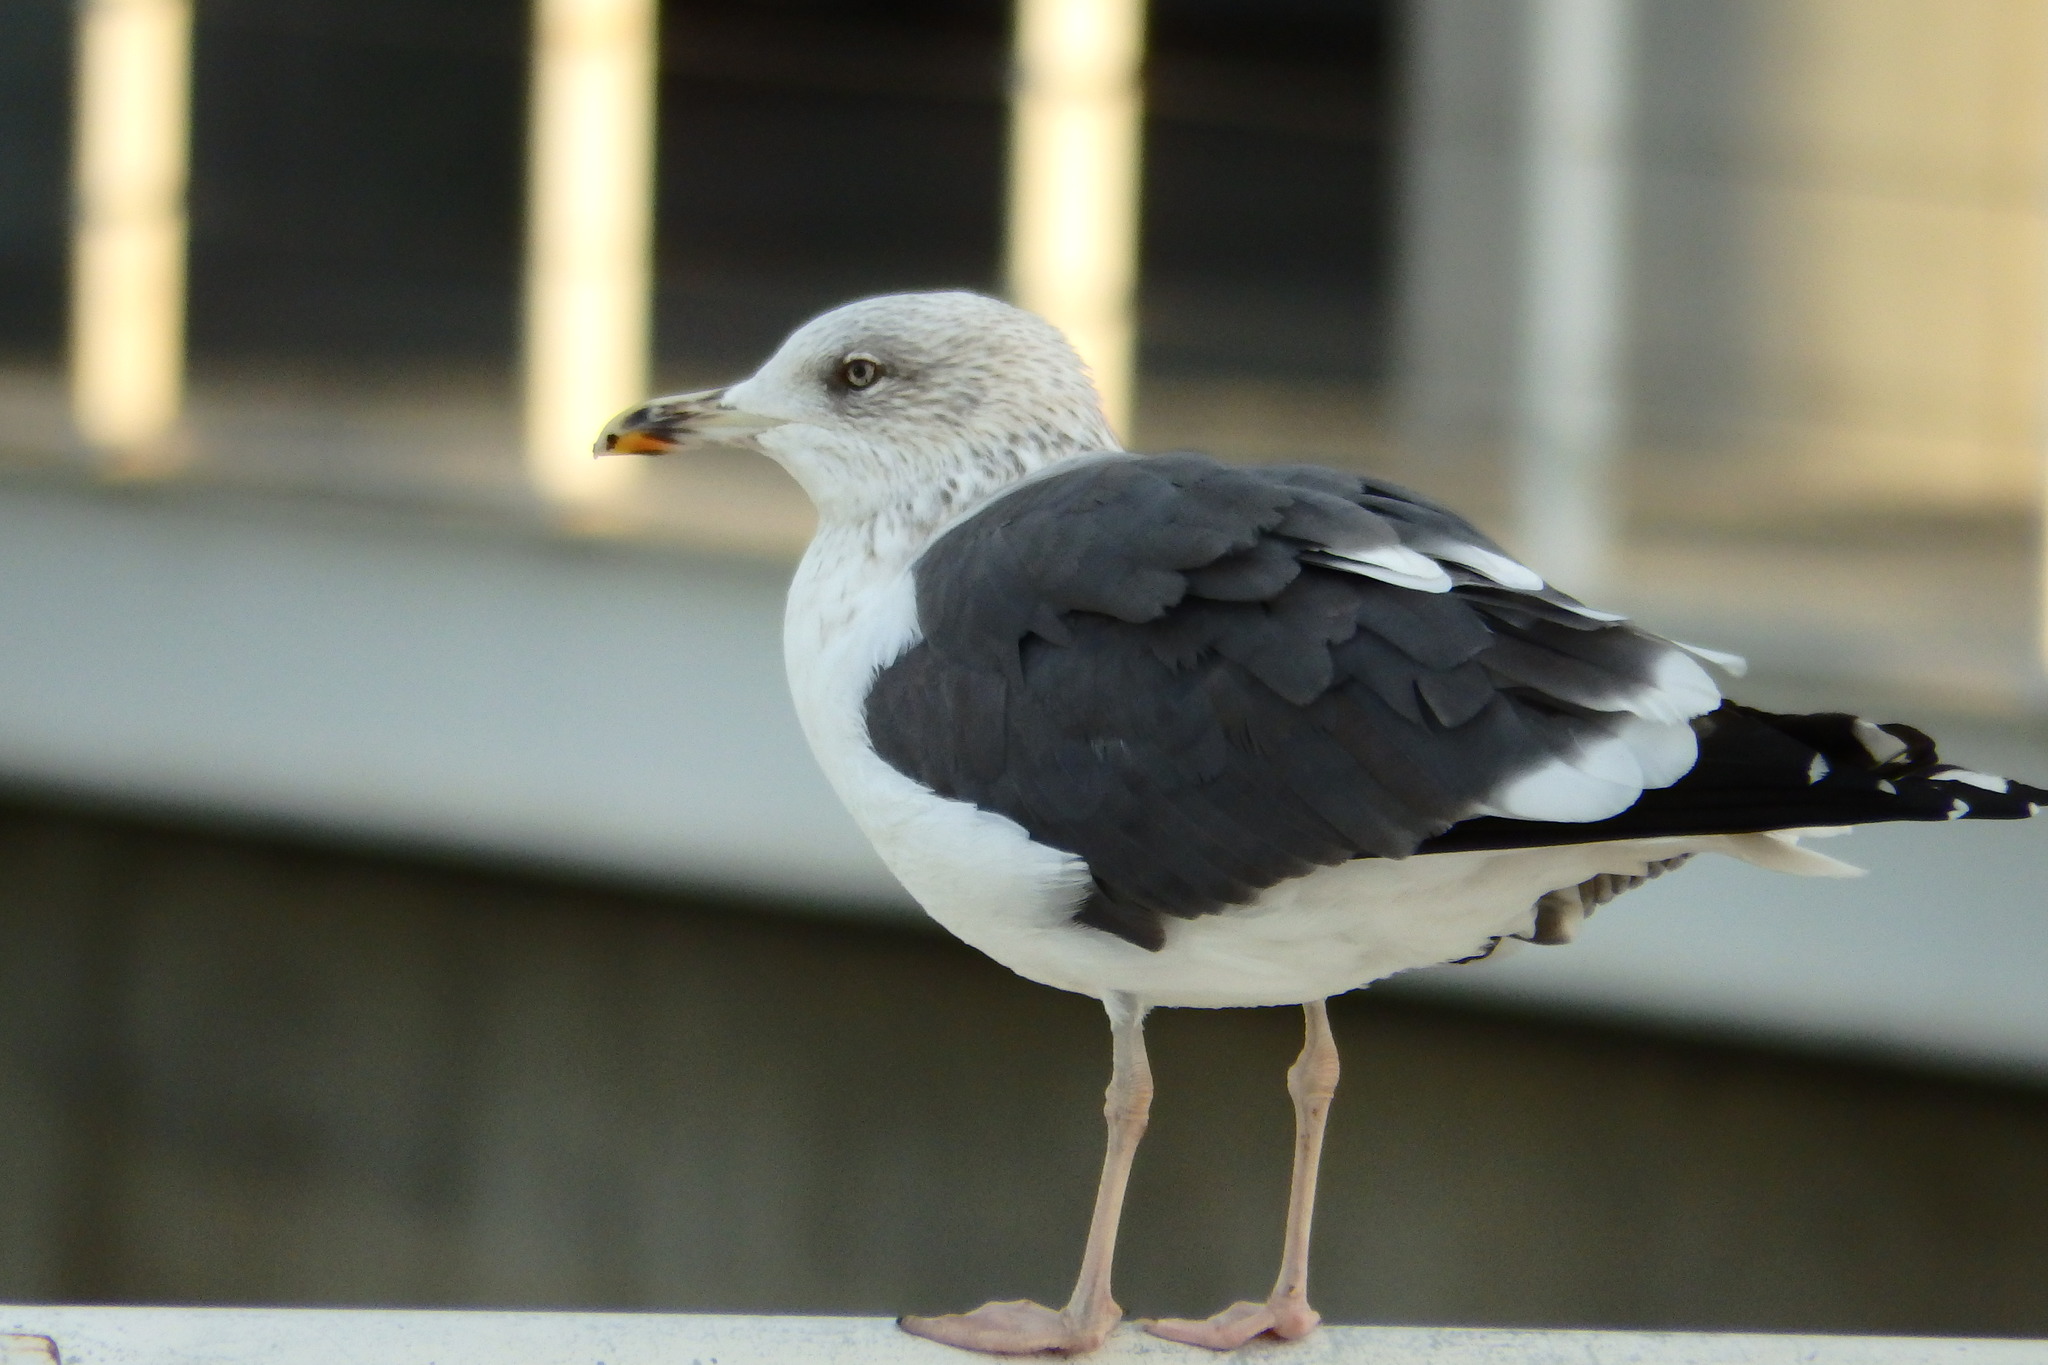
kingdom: Animalia
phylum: Chordata
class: Aves
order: Charadriiformes
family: Laridae
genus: Larus
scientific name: Larus fuscus
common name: Lesser black-backed gull
